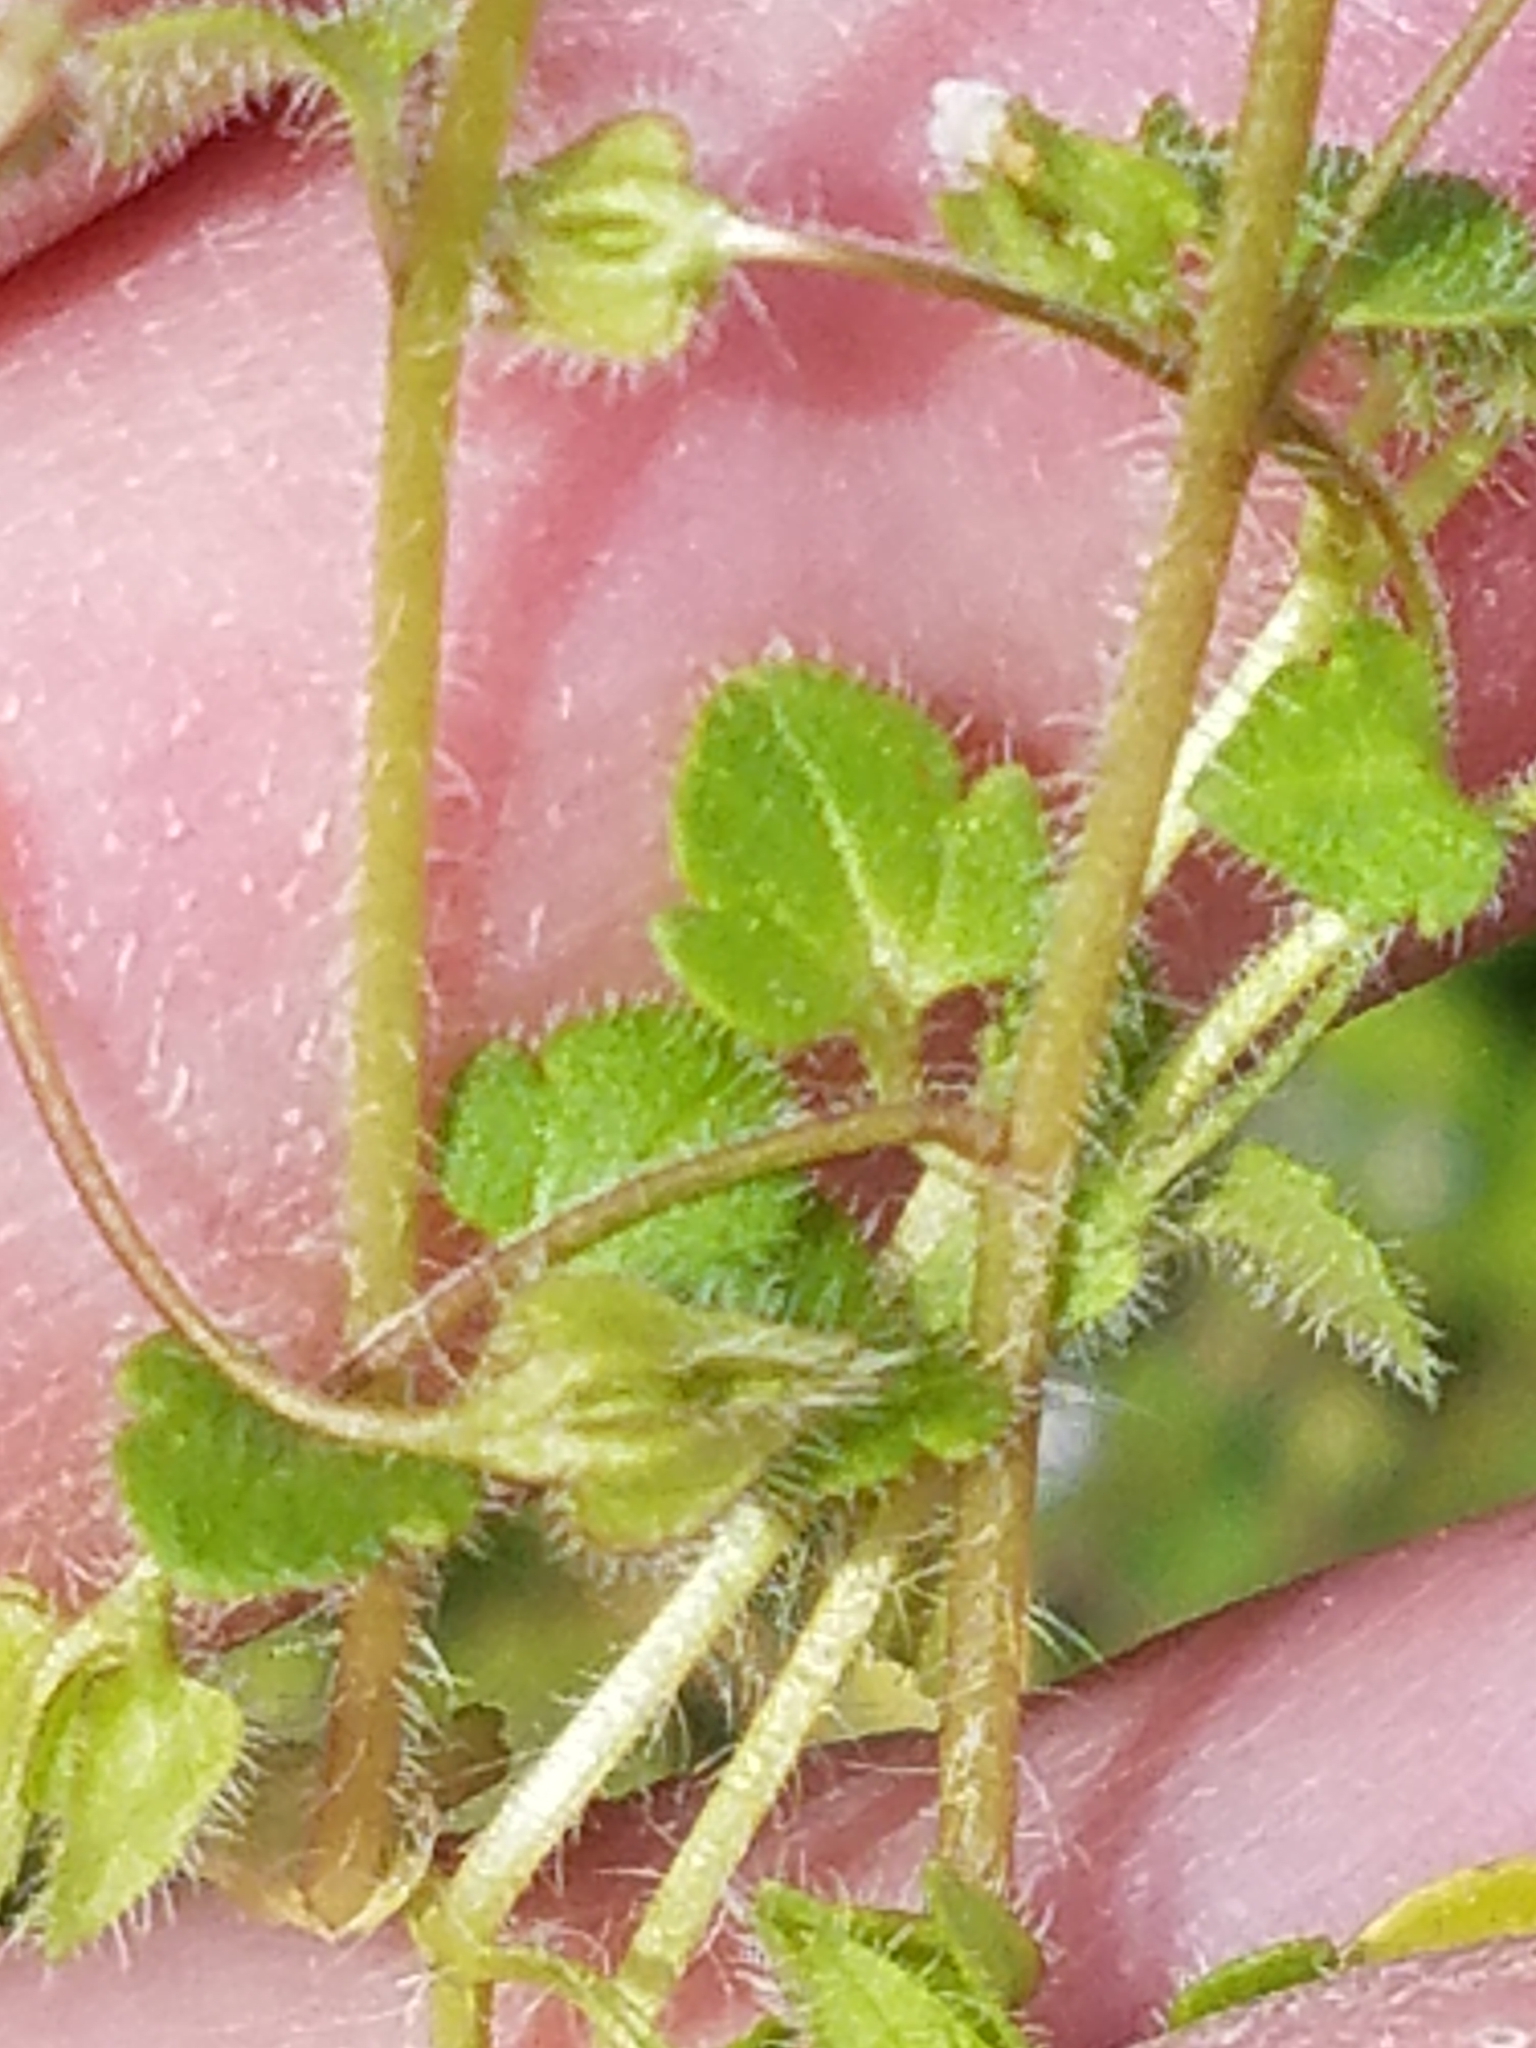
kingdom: Plantae
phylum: Tracheophyta
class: Magnoliopsida
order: Lamiales
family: Plantaginaceae
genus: Veronica
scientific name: Veronica hederifolia
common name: Ivy-leaved speedwell
